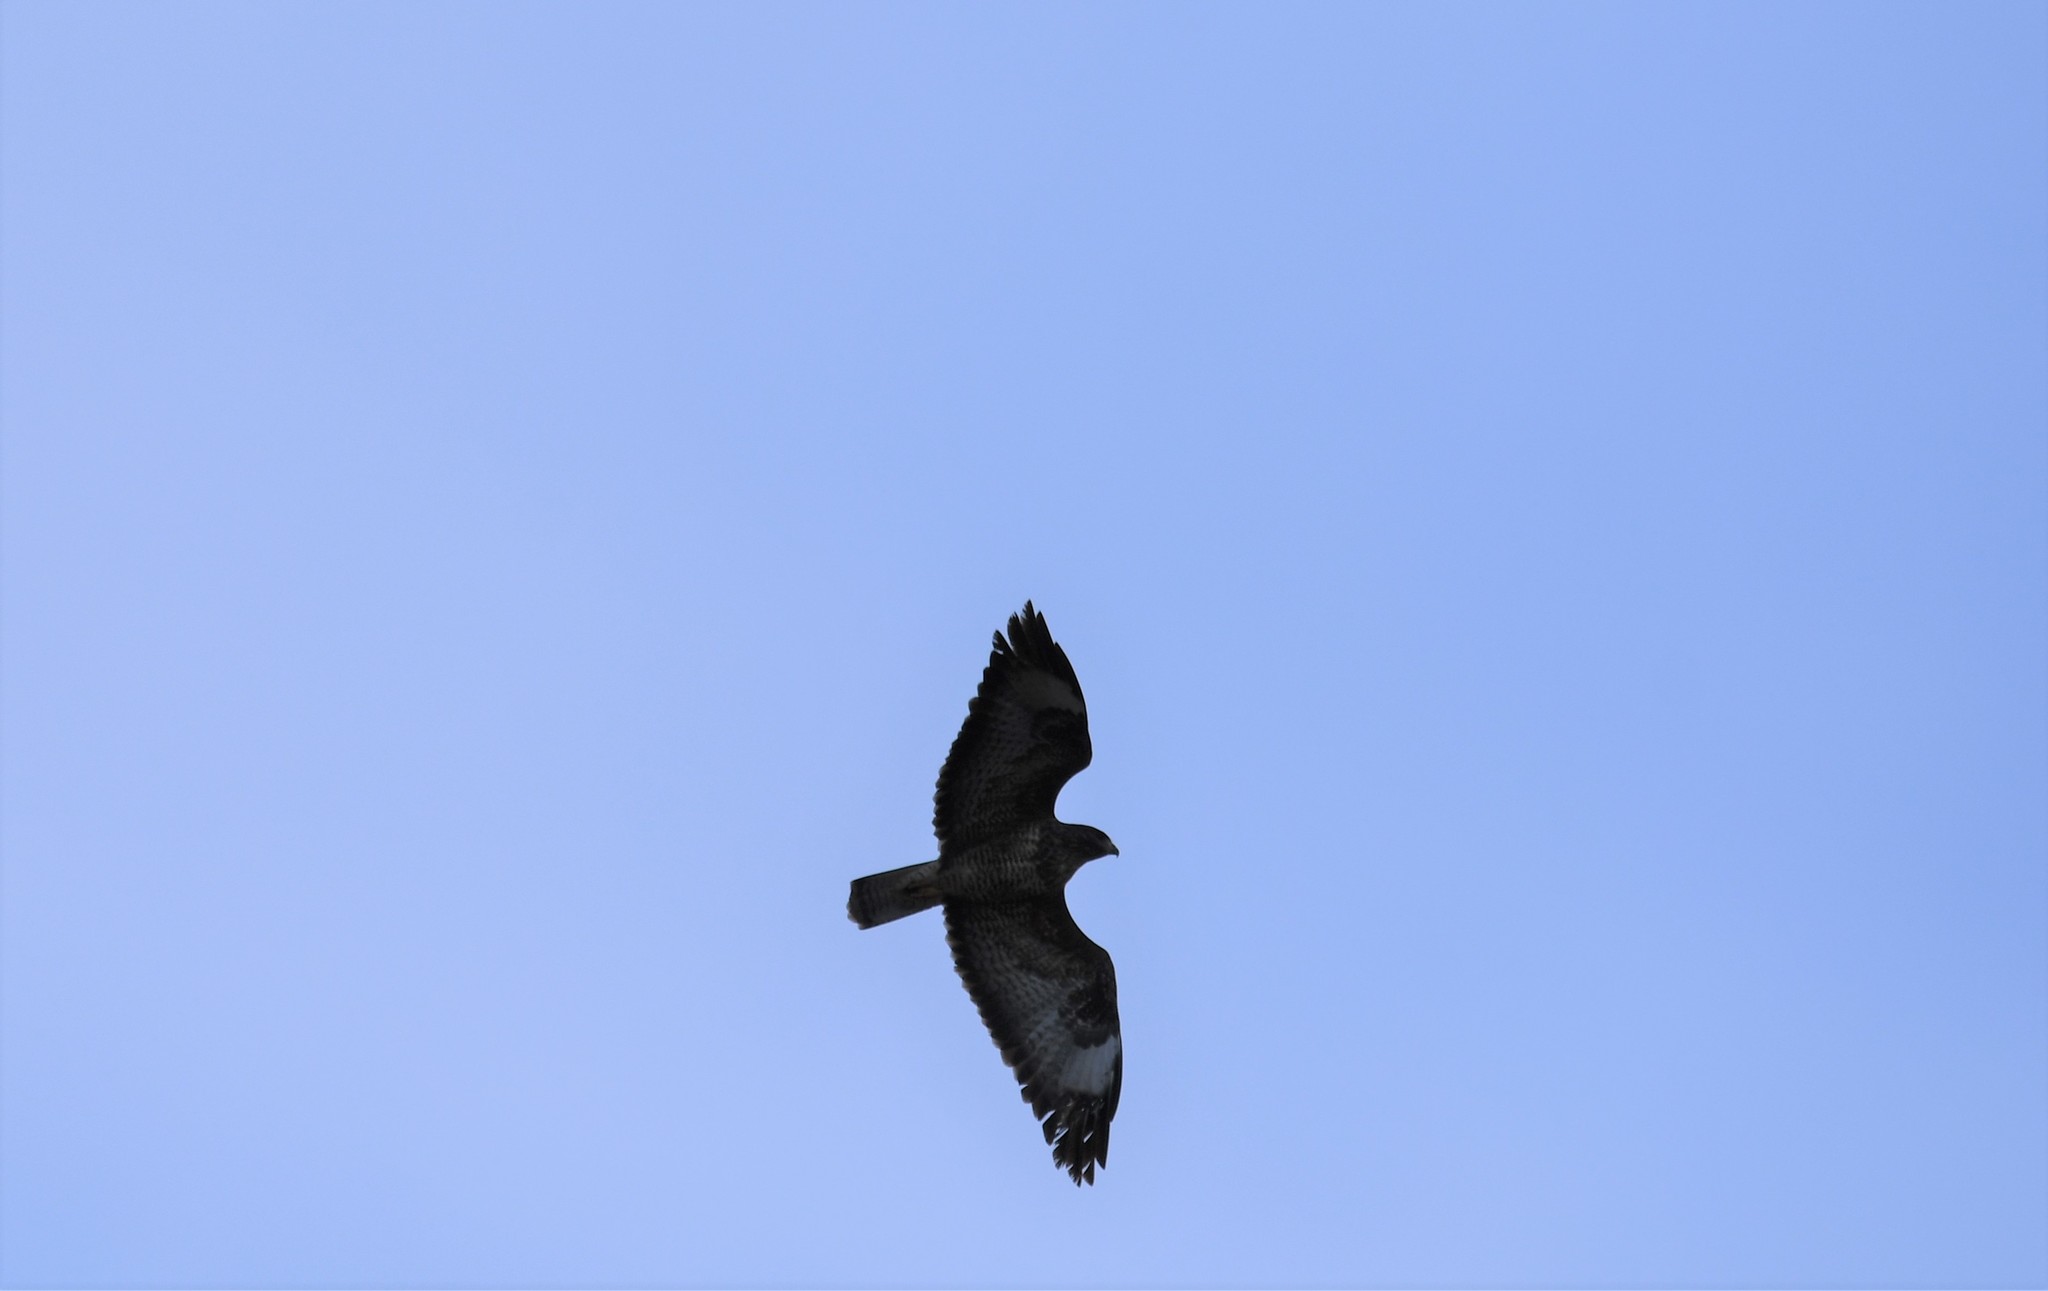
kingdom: Animalia
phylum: Chordata
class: Aves
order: Accipitriformes
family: Accipitridae
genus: Buteo
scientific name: Buteo buteo
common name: Common buzzard
